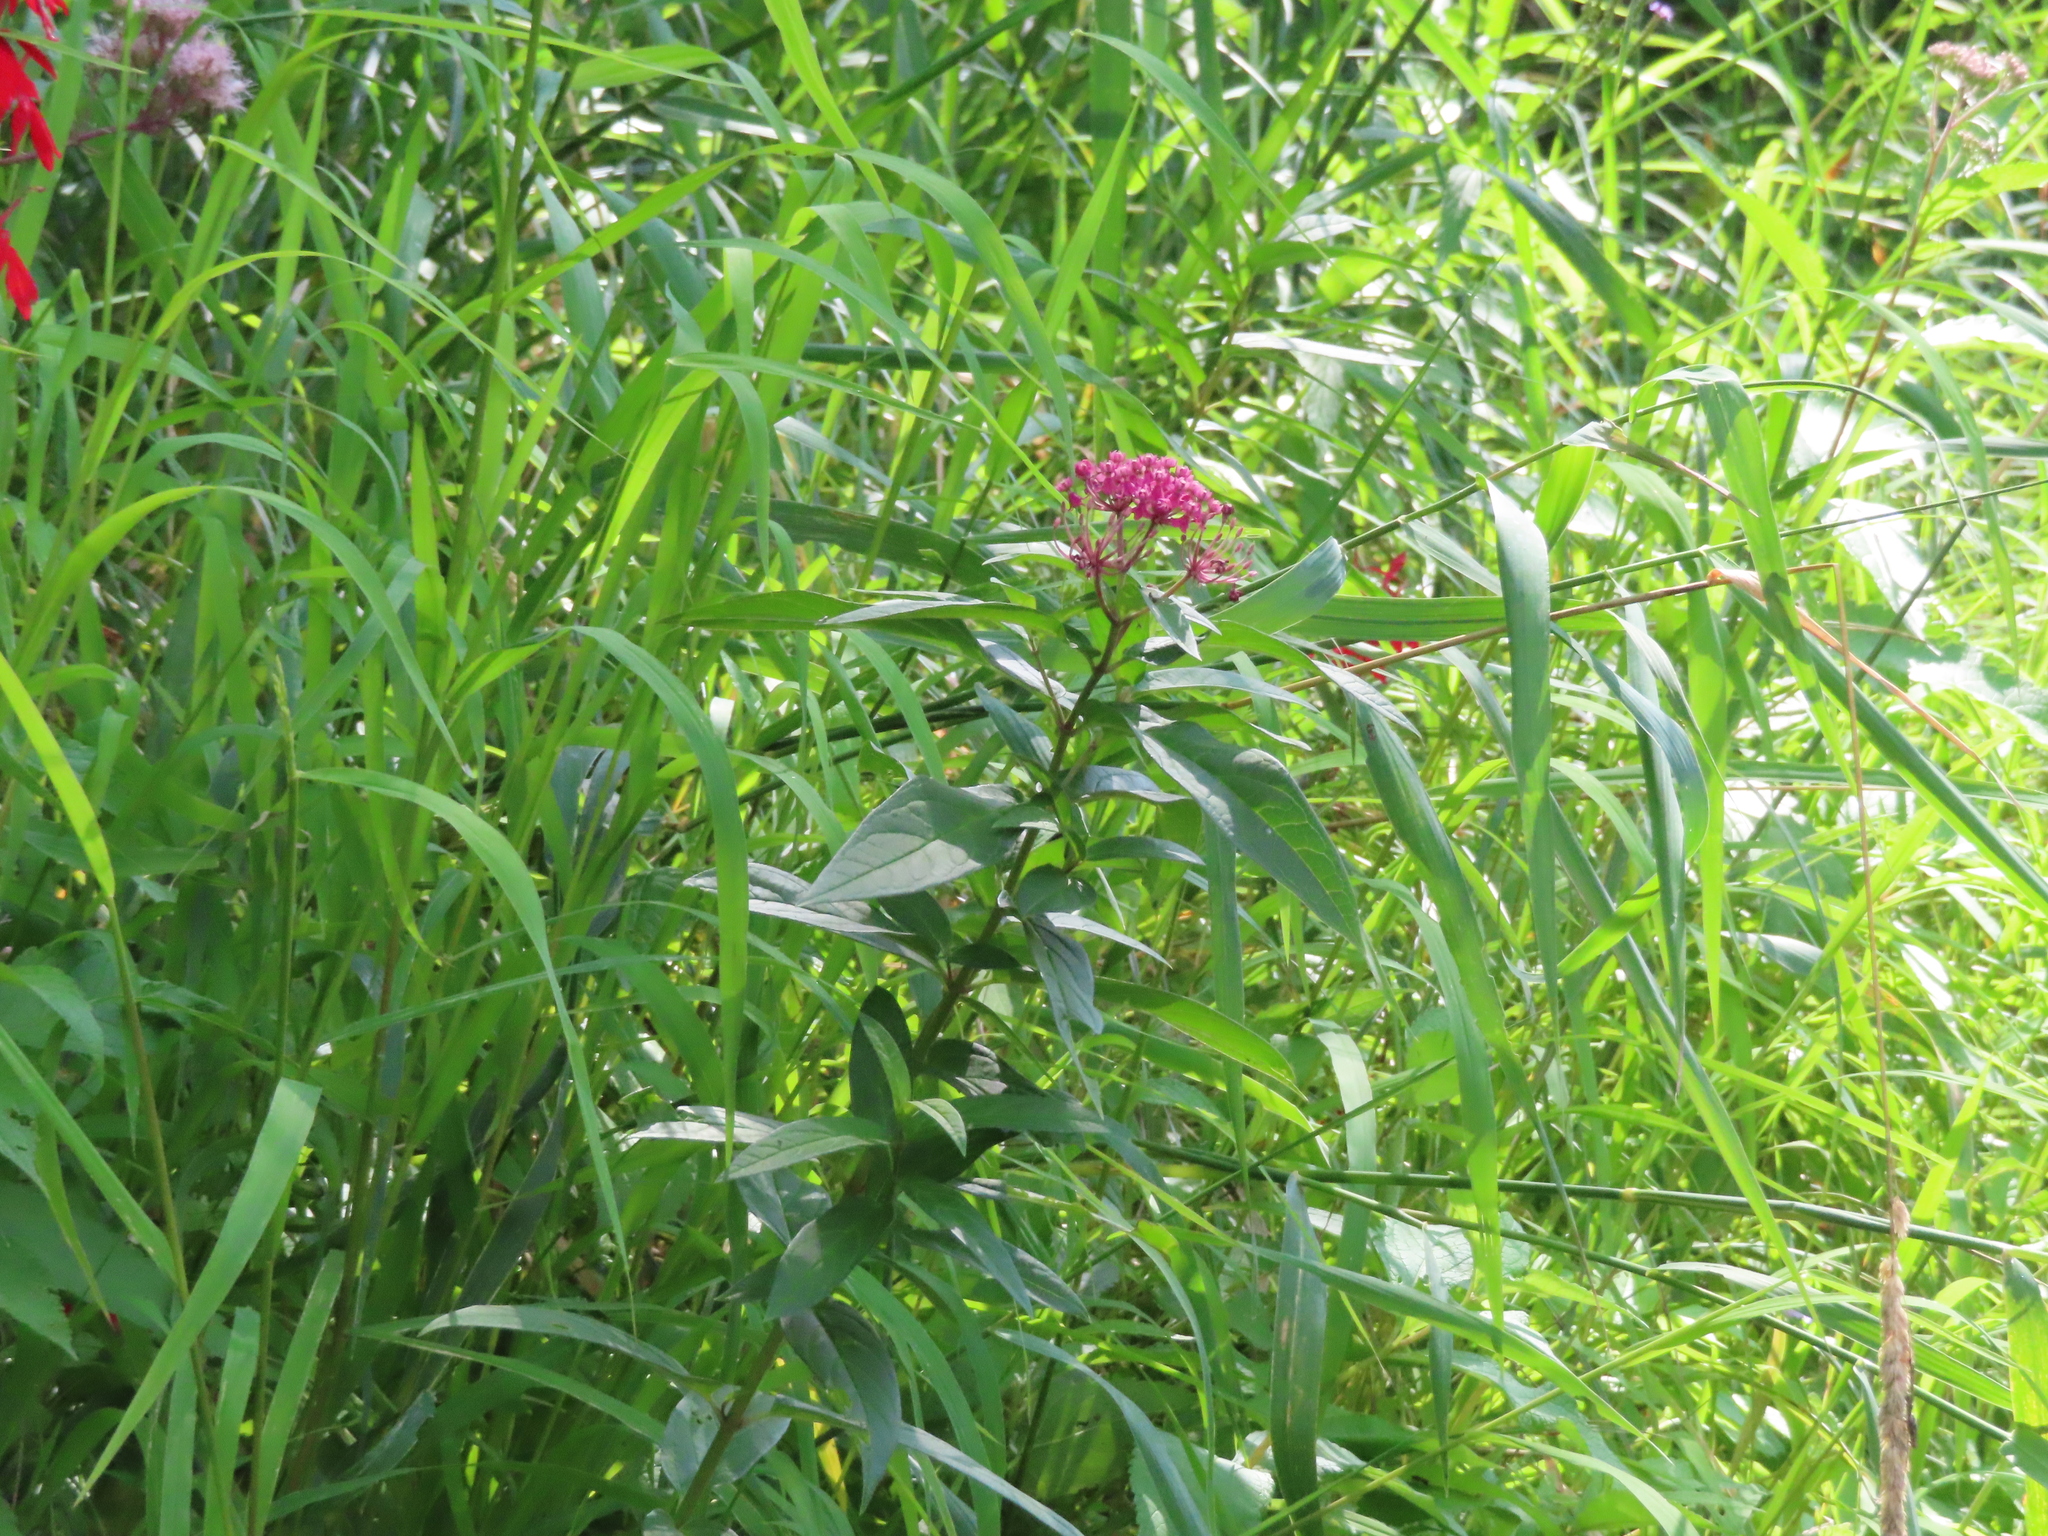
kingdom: Plantae
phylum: Tracheophyta
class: Magnoliopsida
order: Gentianales
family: Apocynaceae
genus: Asclepias
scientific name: Asclepias incarnata
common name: Swamp milkweed
